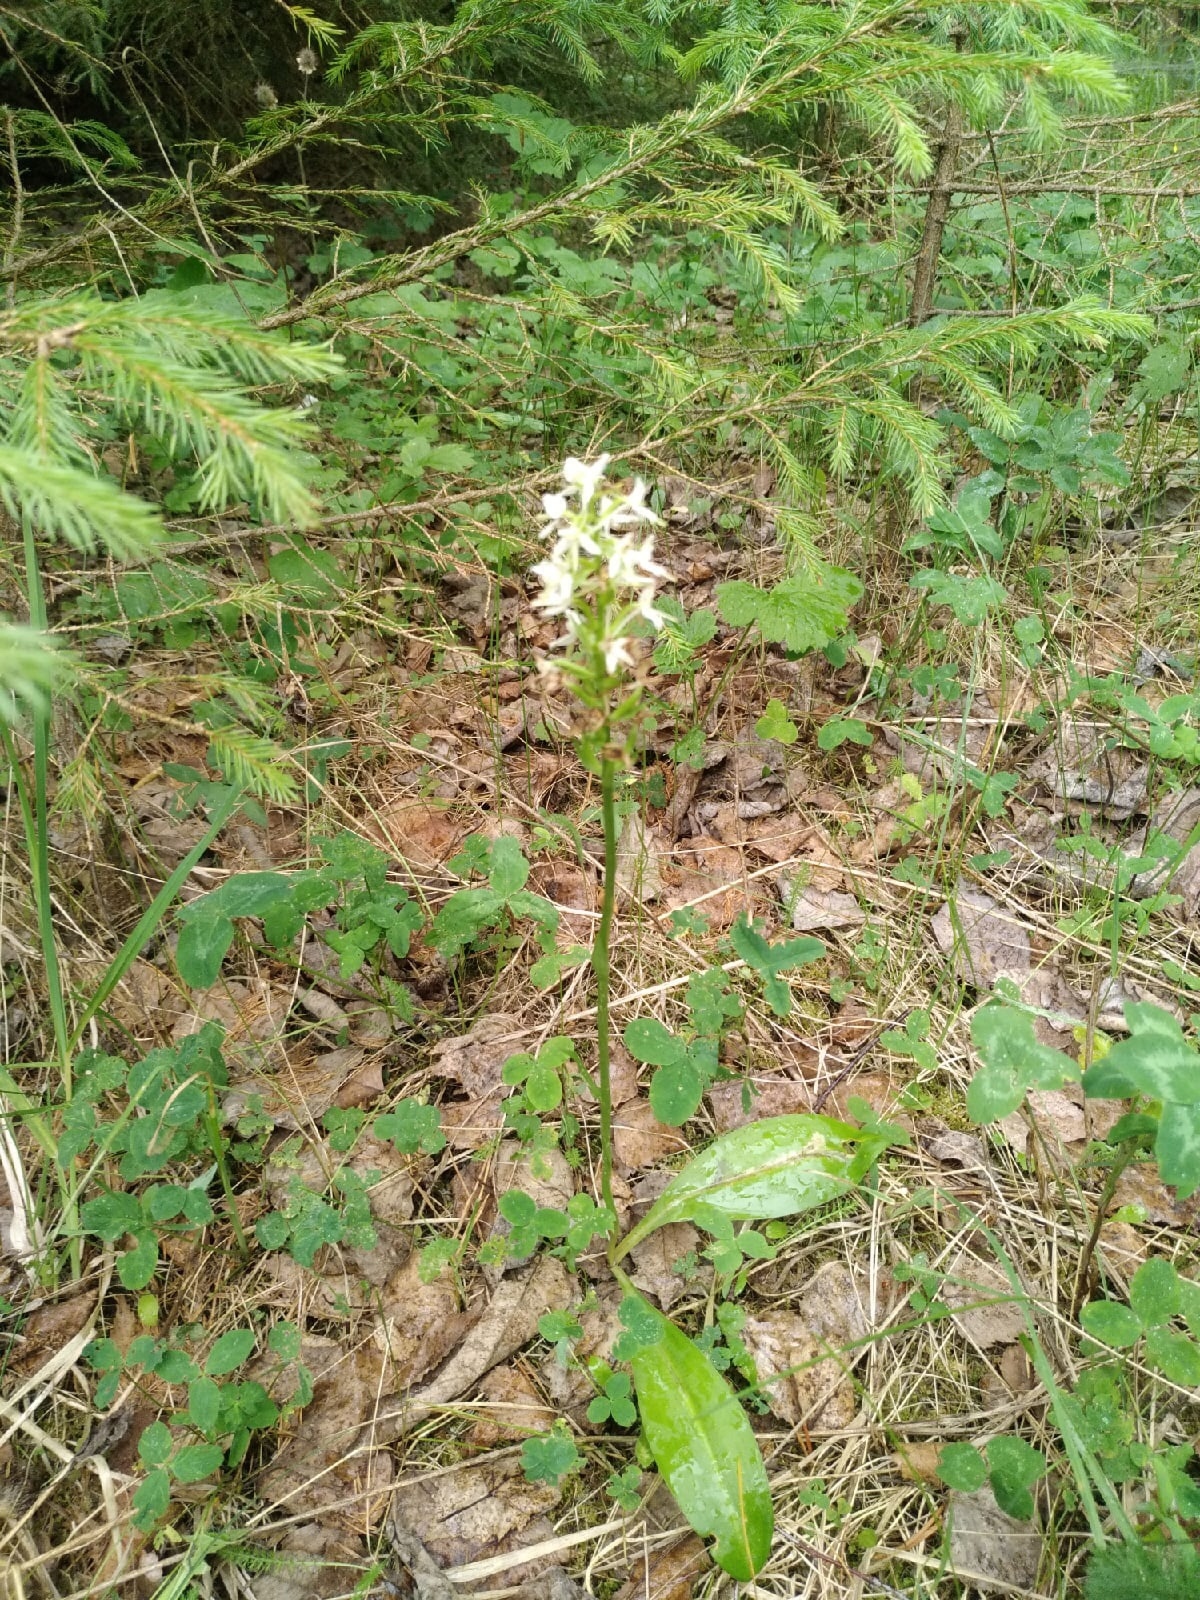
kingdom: Plantae
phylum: Tracheophyta
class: Liliopsida
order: Asparagales
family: Orchidaceae
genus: Platanthera
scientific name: Platanthera bifolia
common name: Lesser butterfly-orchid
